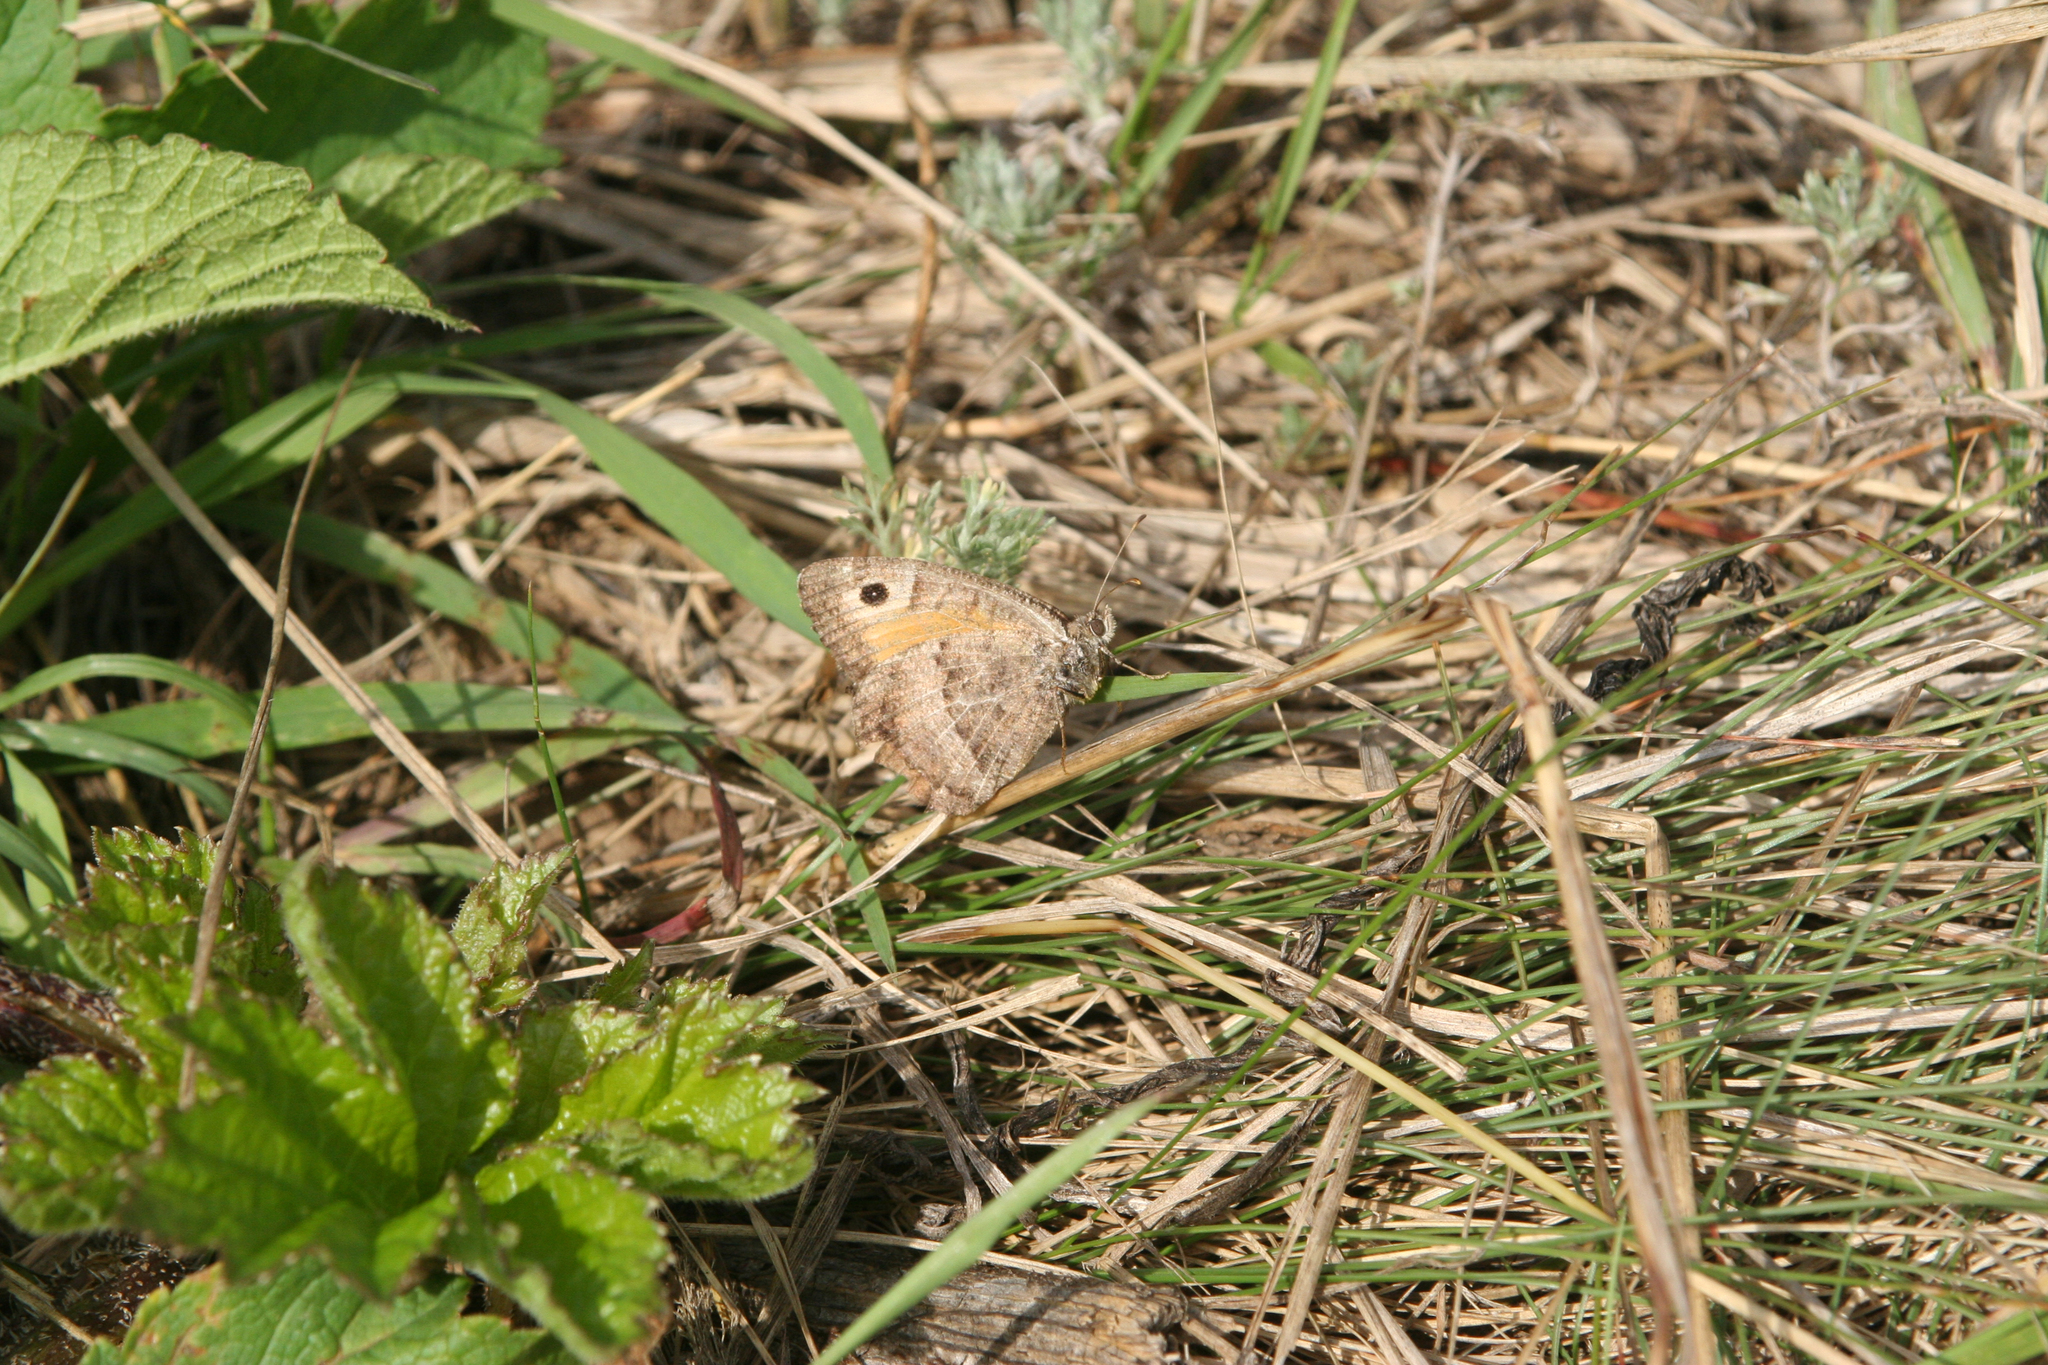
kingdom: Animalia
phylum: Arthropoda
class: Insecta
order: Lepidoptera
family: Nymphalidae
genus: Arethusana
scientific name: Arethusana arethusa
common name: False grayling
